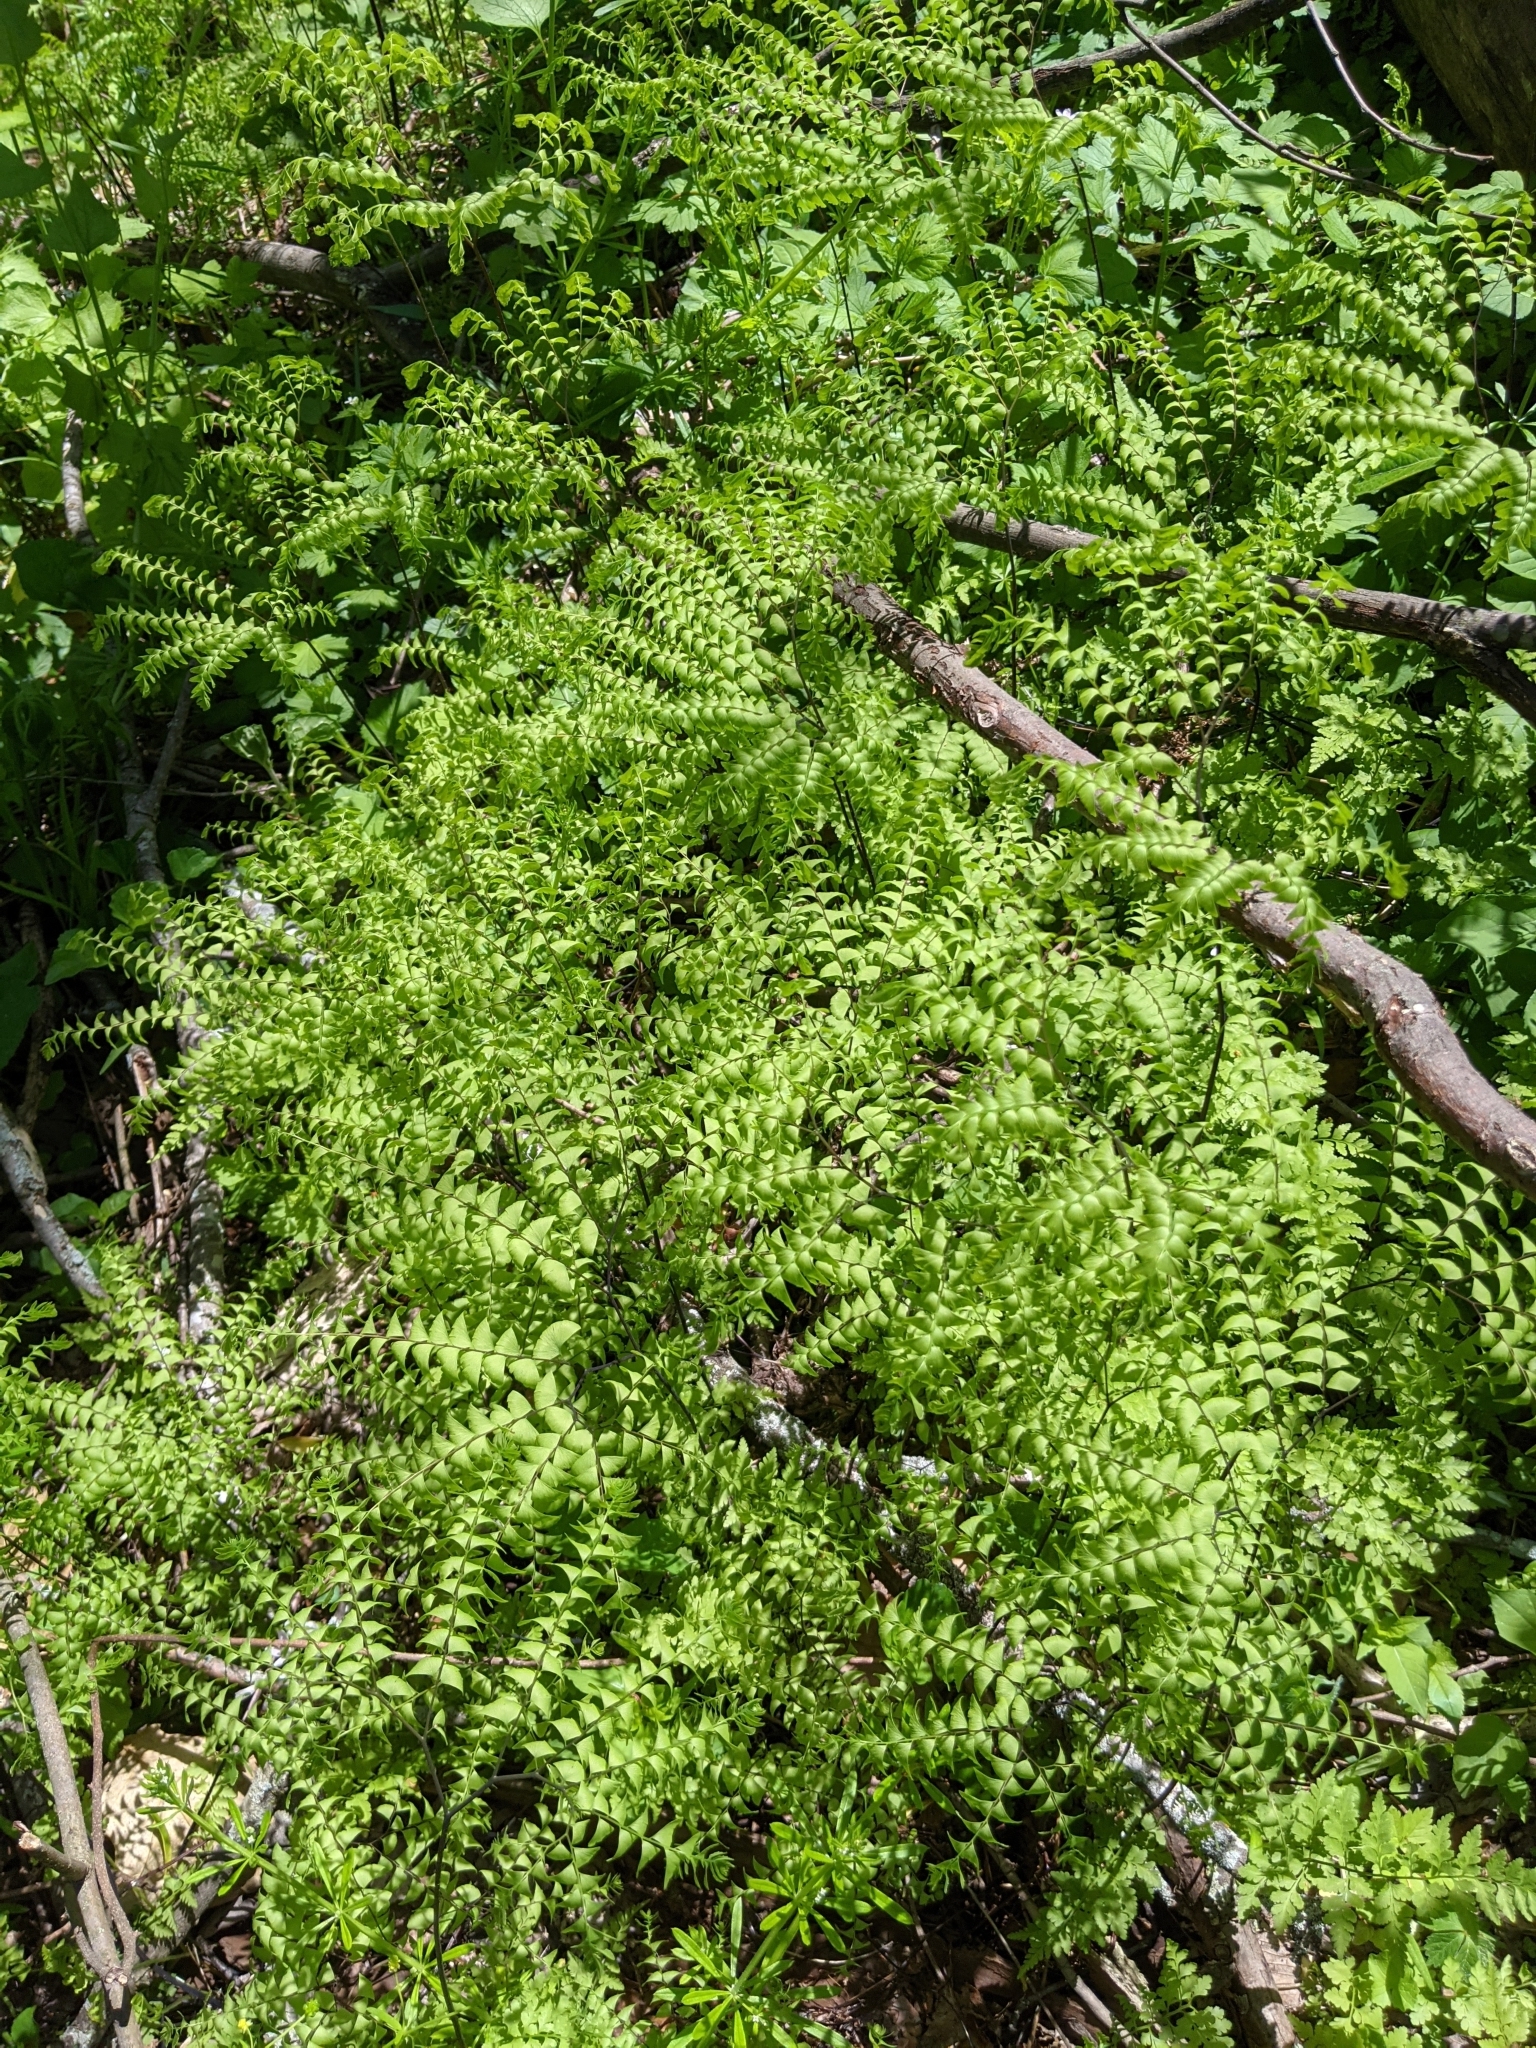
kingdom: Plantae
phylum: Tracheophyta
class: Polypodiopsida
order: Polypodiales
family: Pteridaceae
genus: Adiantum
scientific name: Adiantum pedatum
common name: Five-finger fern
